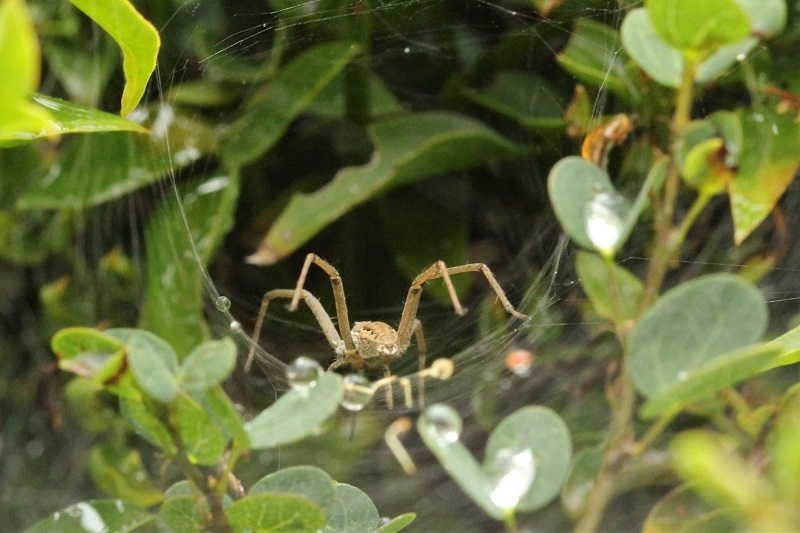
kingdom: Animalia
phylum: Arthropoda
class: Arachnida
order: Araneae
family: Pisauridae
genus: Euprosthenopsis
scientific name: Euprosthenopsis pulchella
